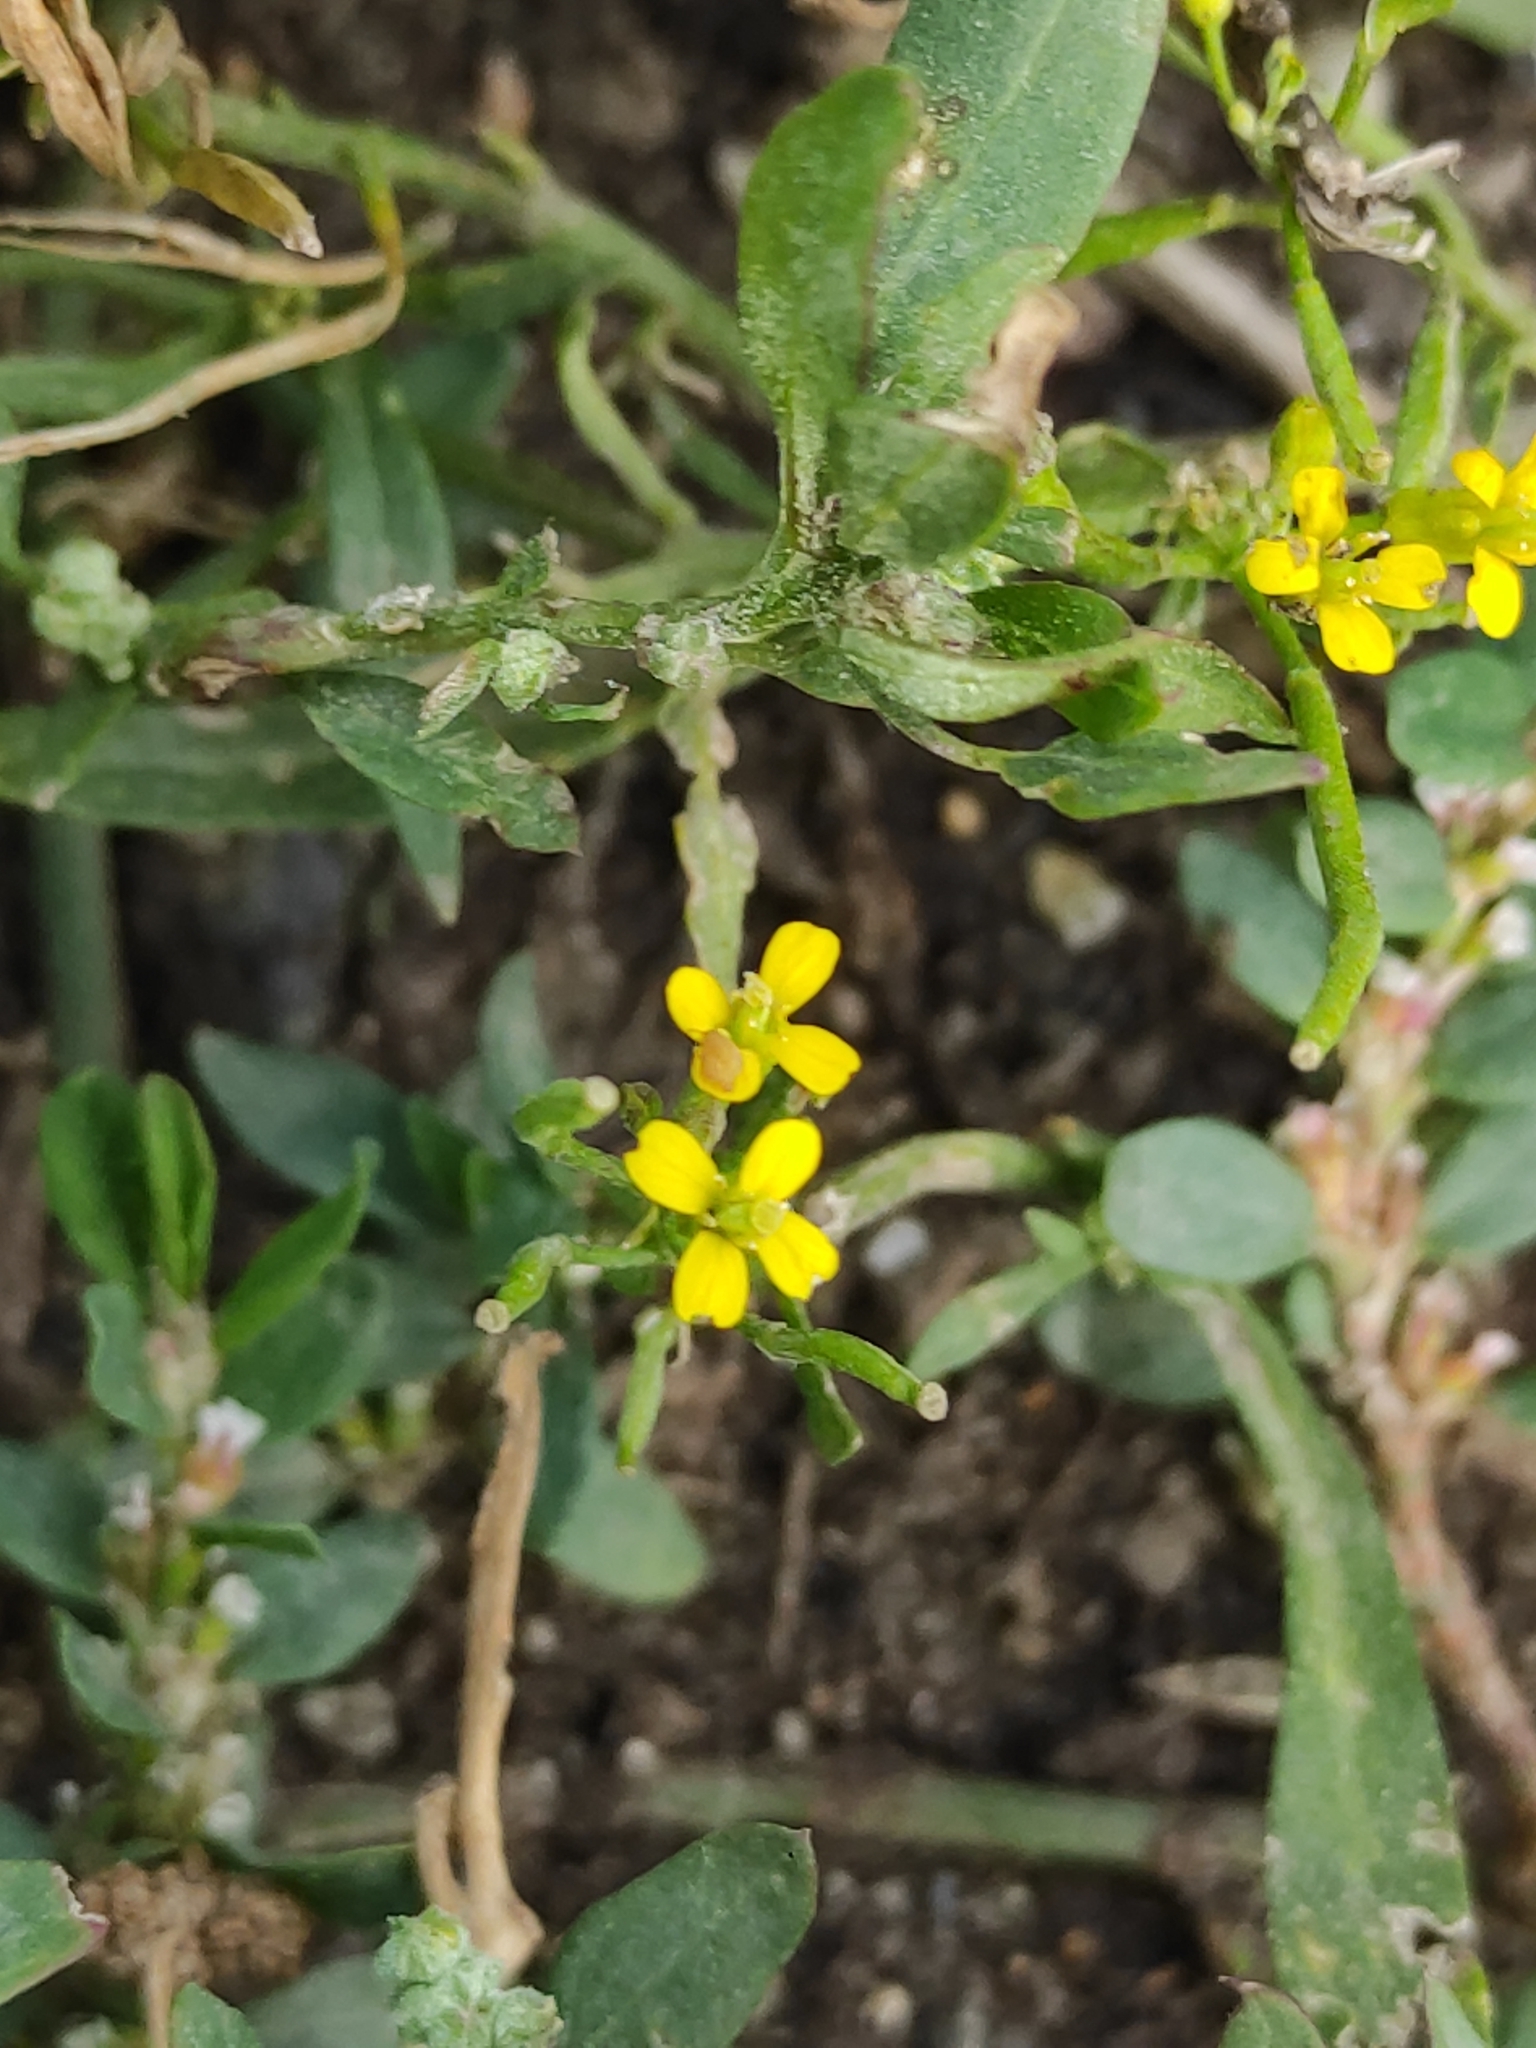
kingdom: Plantae
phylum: Tracheophyta
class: Magnoliopsida
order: Brassicales
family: Brassicaceae
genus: Erysimum
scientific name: Erysimum cheiranthoides
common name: Treacle mustard
